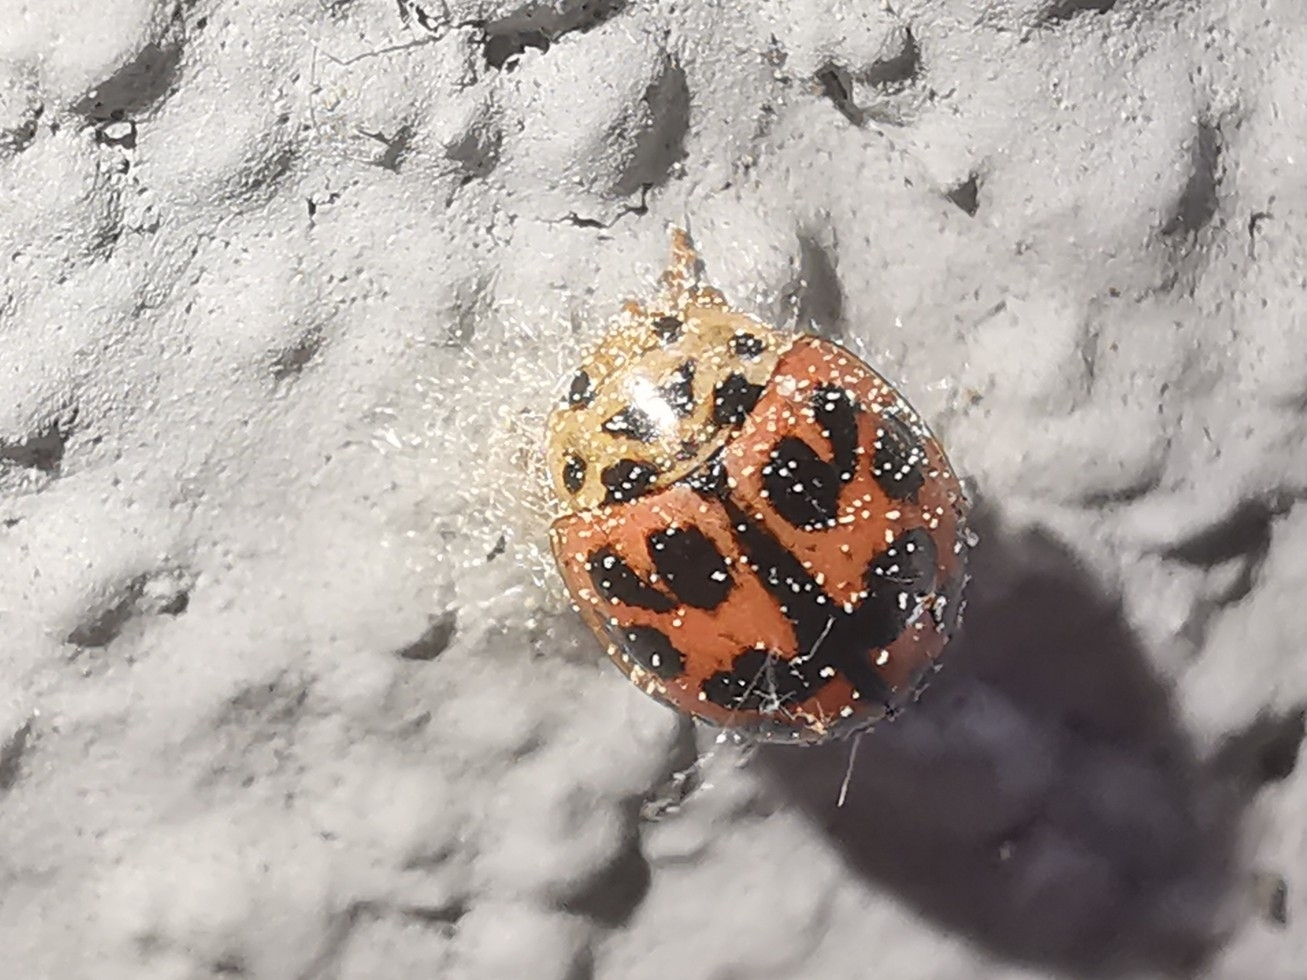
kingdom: Animalia
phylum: Arthropoda
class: Insecta
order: Coleoptera
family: Coccinellidae
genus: Oenopia
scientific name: Oenopia conglobata
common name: Ladybird beetle
